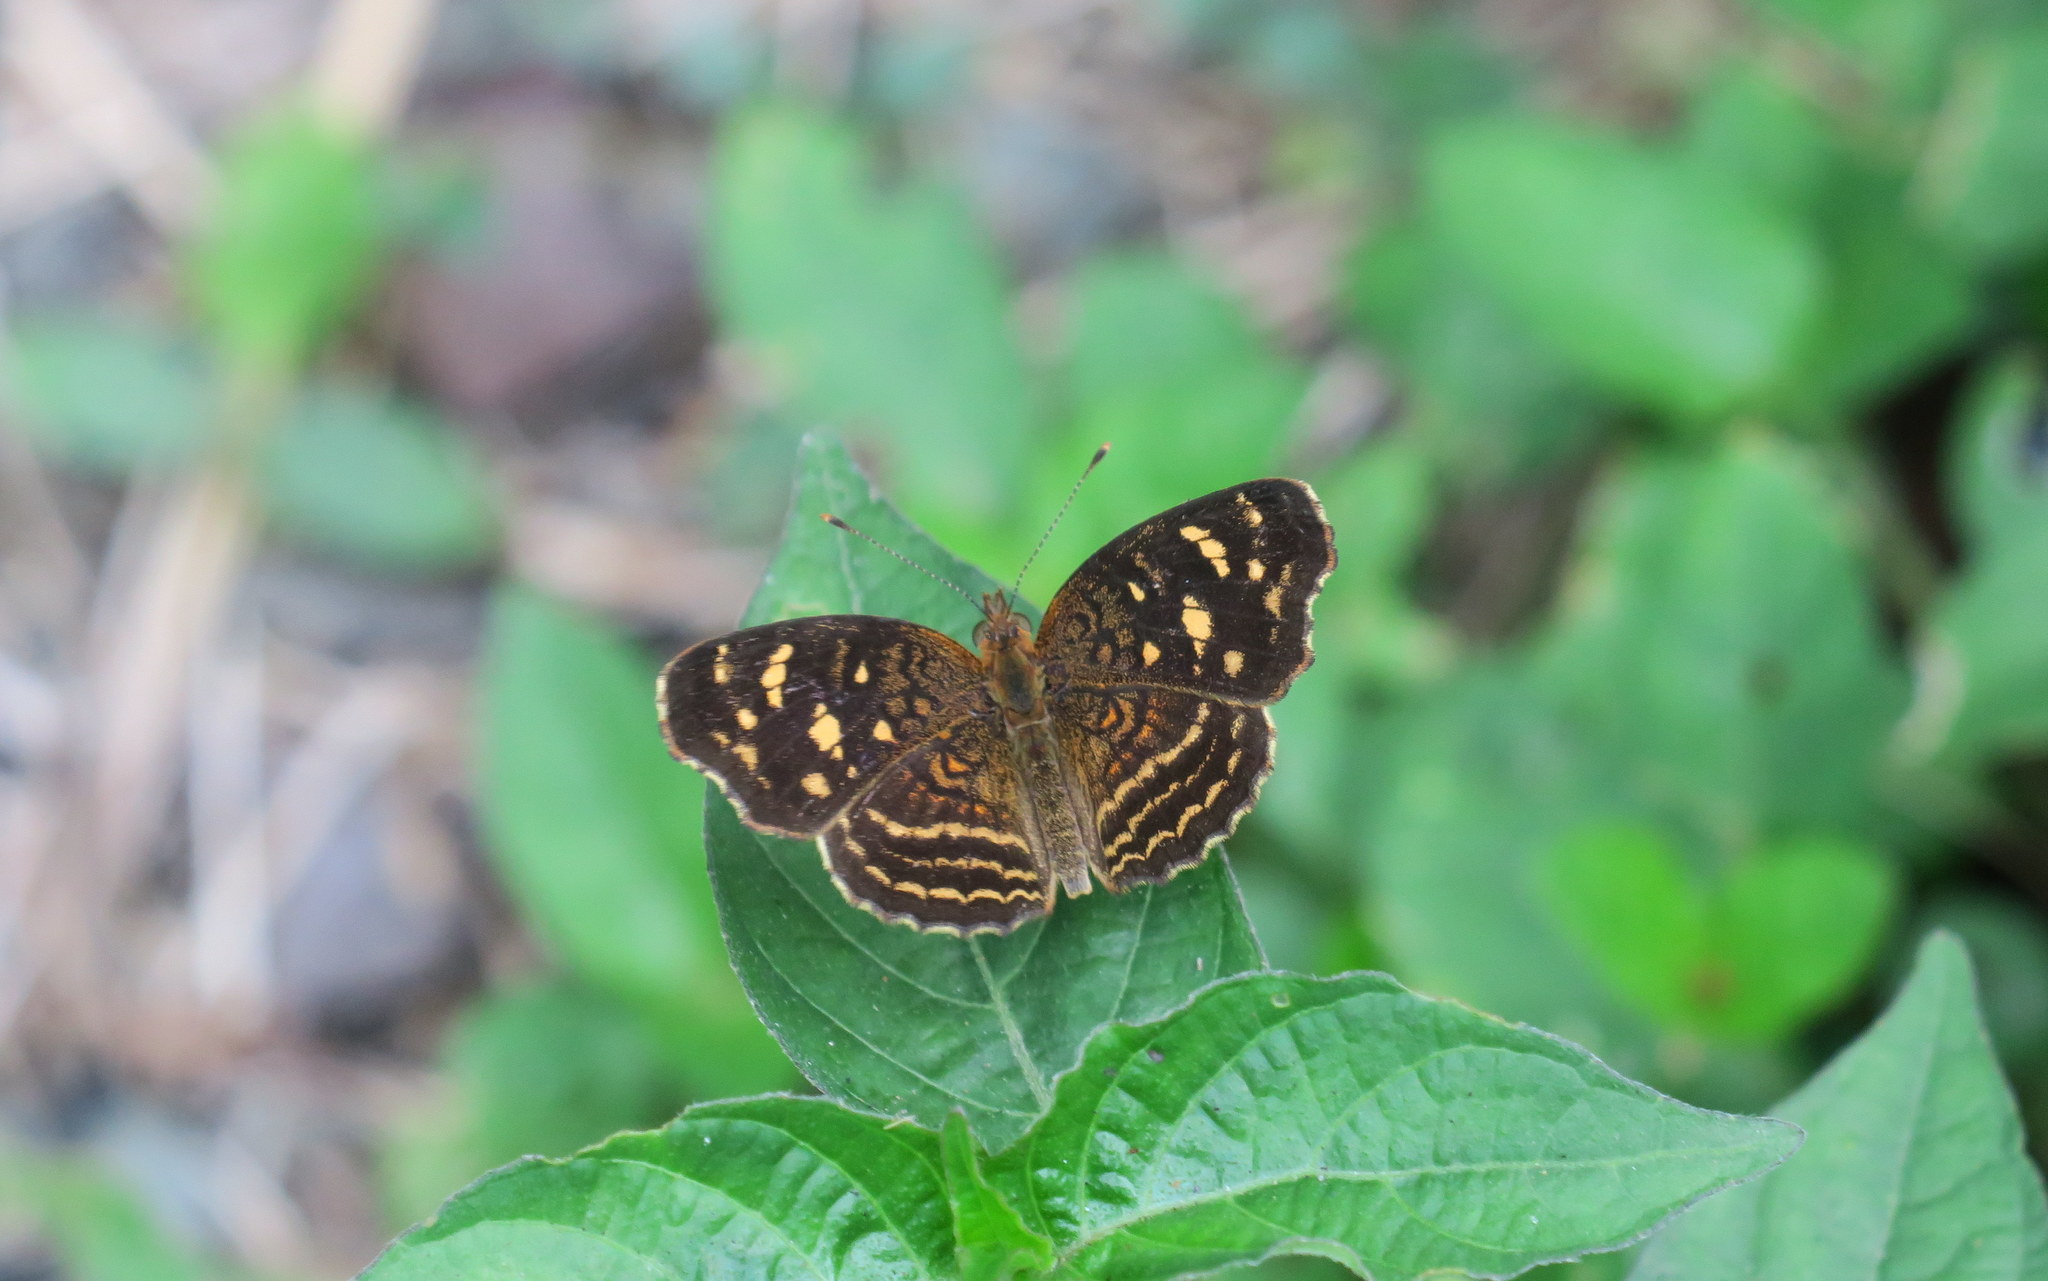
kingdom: Animalia
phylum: Arthropoda
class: Insecta
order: Lepidoptera
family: Nymphalidae
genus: Anthanassa
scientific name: Anthanassa annulata
